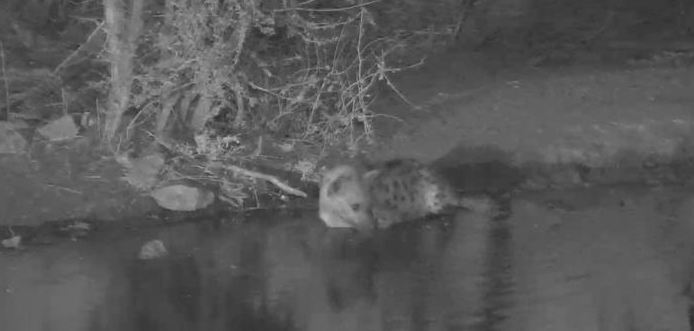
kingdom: Animalia
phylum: Chordata
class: Mammalia
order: Carnivora
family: Hyaenidae
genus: Crocuta
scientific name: Crocuta crocuta
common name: Spotted hyaena
